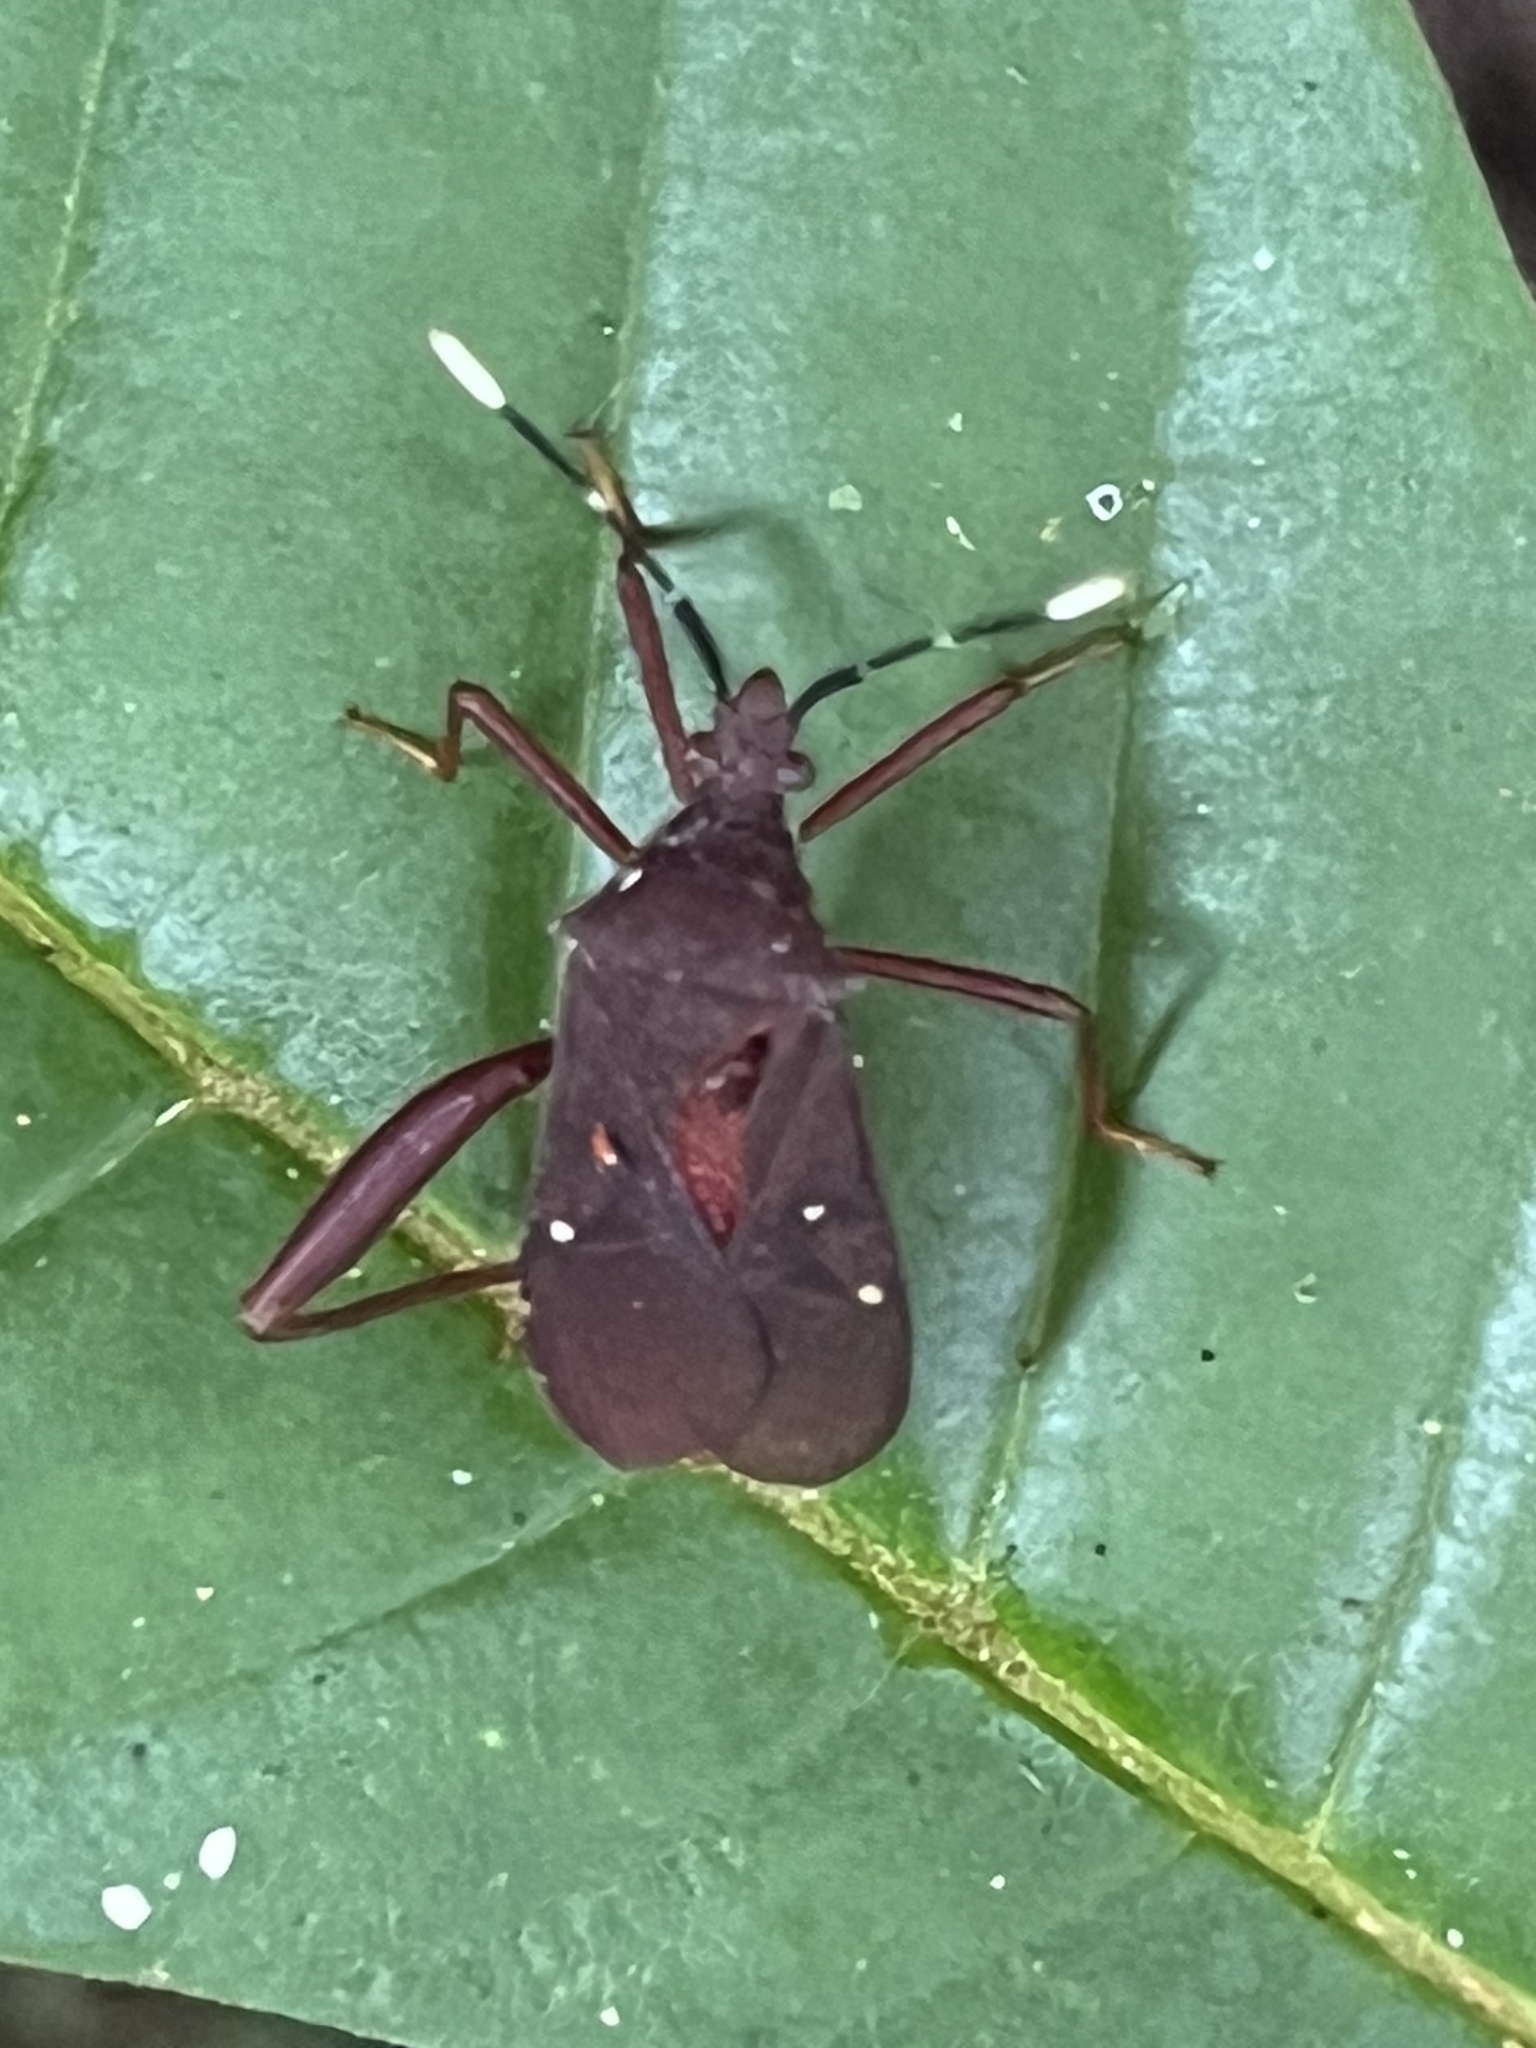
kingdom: Animalia
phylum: Arthropoda
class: Insecta
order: Hemiptera
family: Coreidae
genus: Leptoscelis
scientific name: Leptoscelis quadrisignatus
